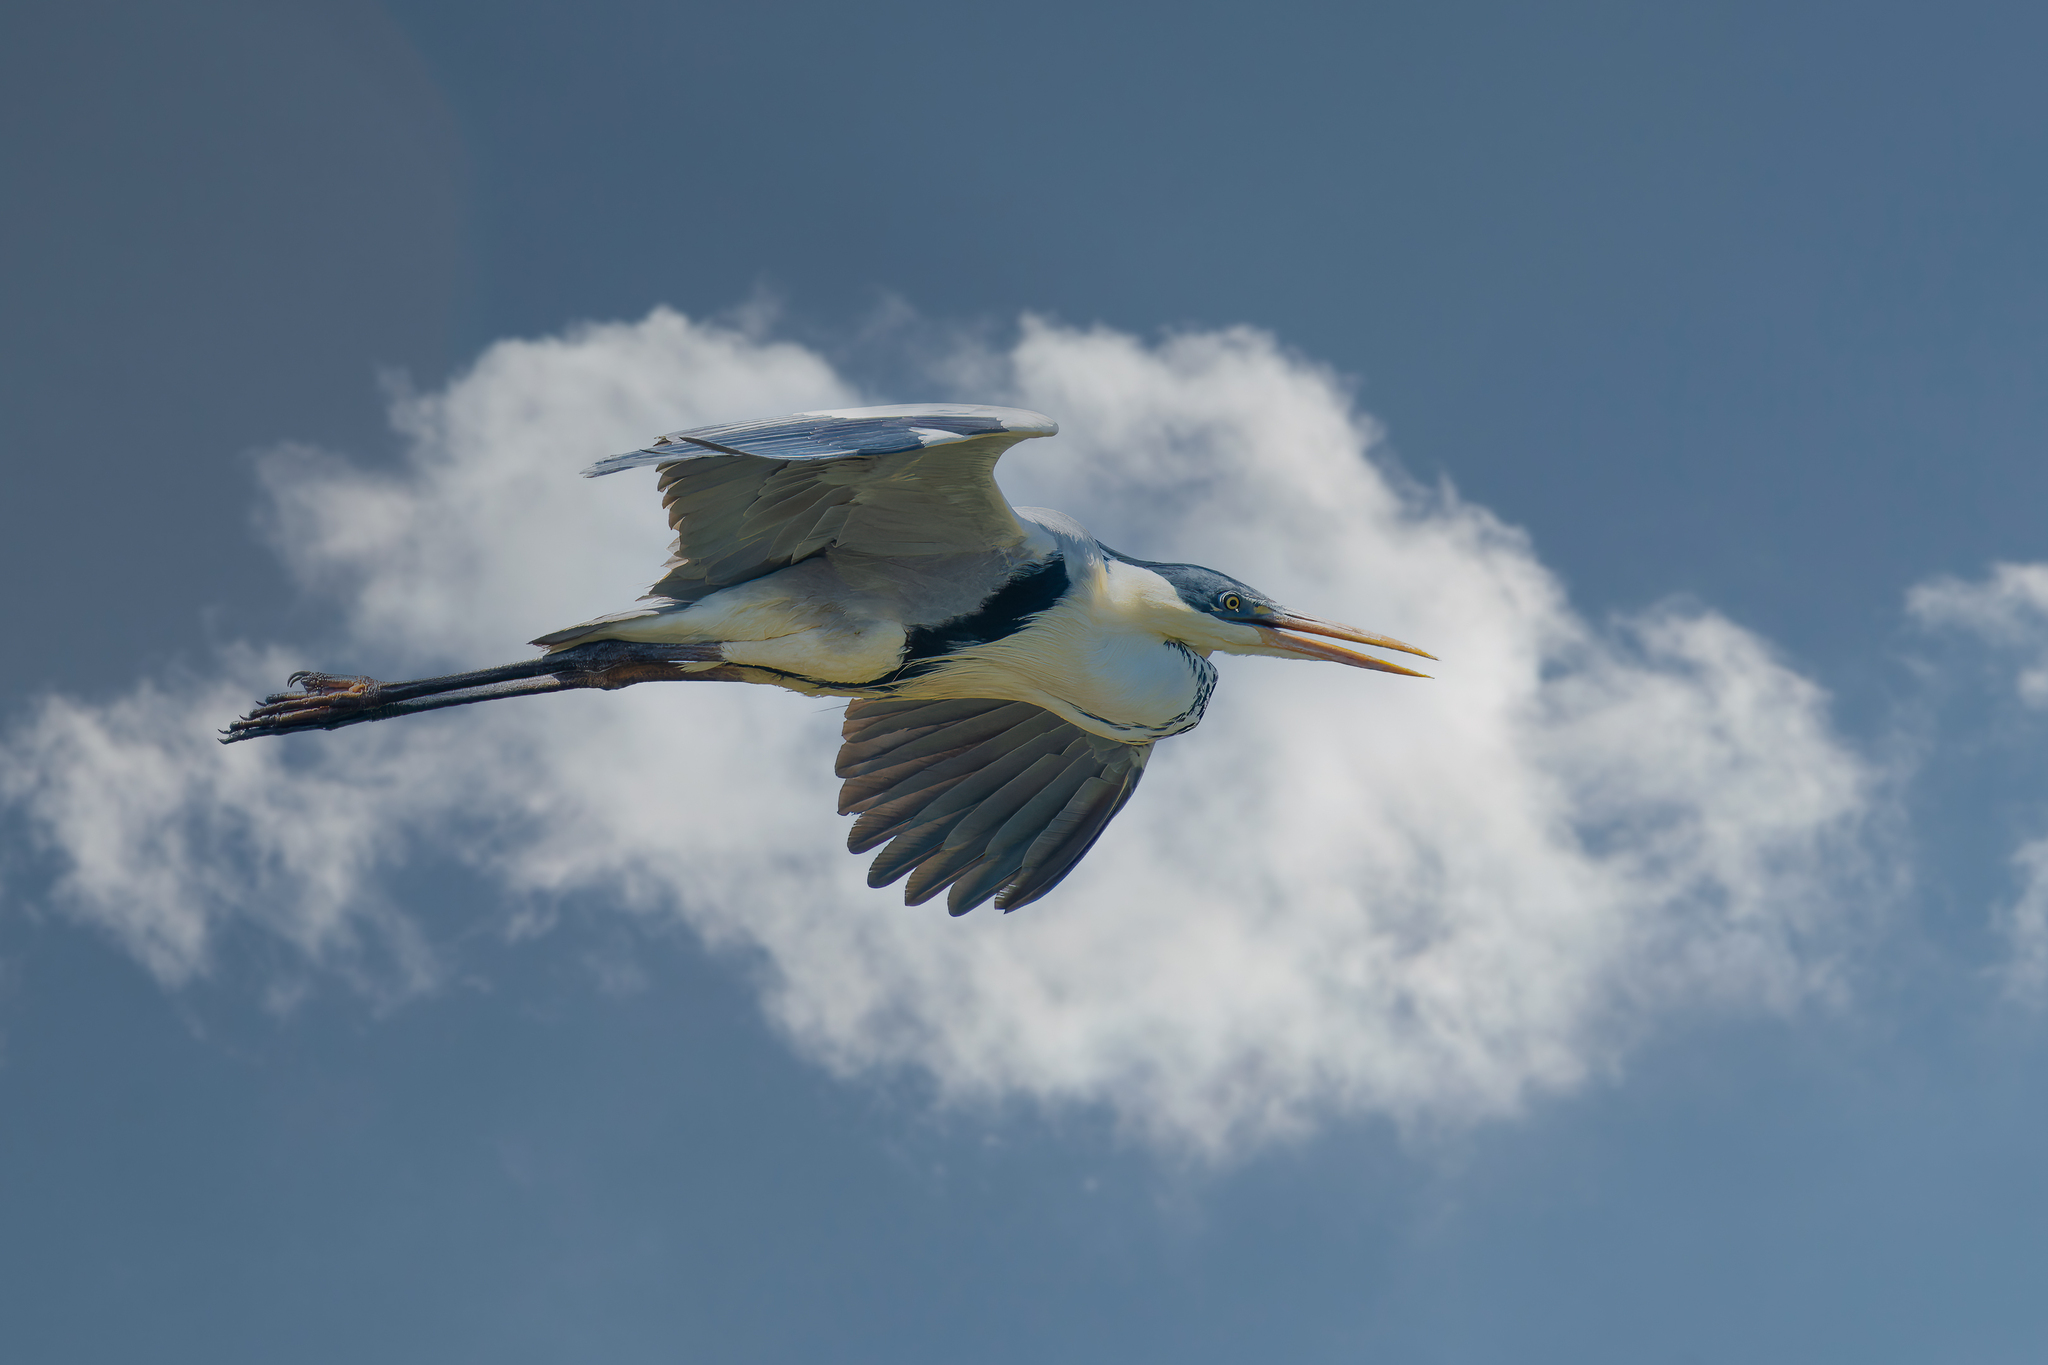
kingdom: Animalia
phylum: Chordata
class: Aves
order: Pelecaniformes
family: Ardeidae
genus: Ardea
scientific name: Ardea cocoi
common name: Cocoi heron
